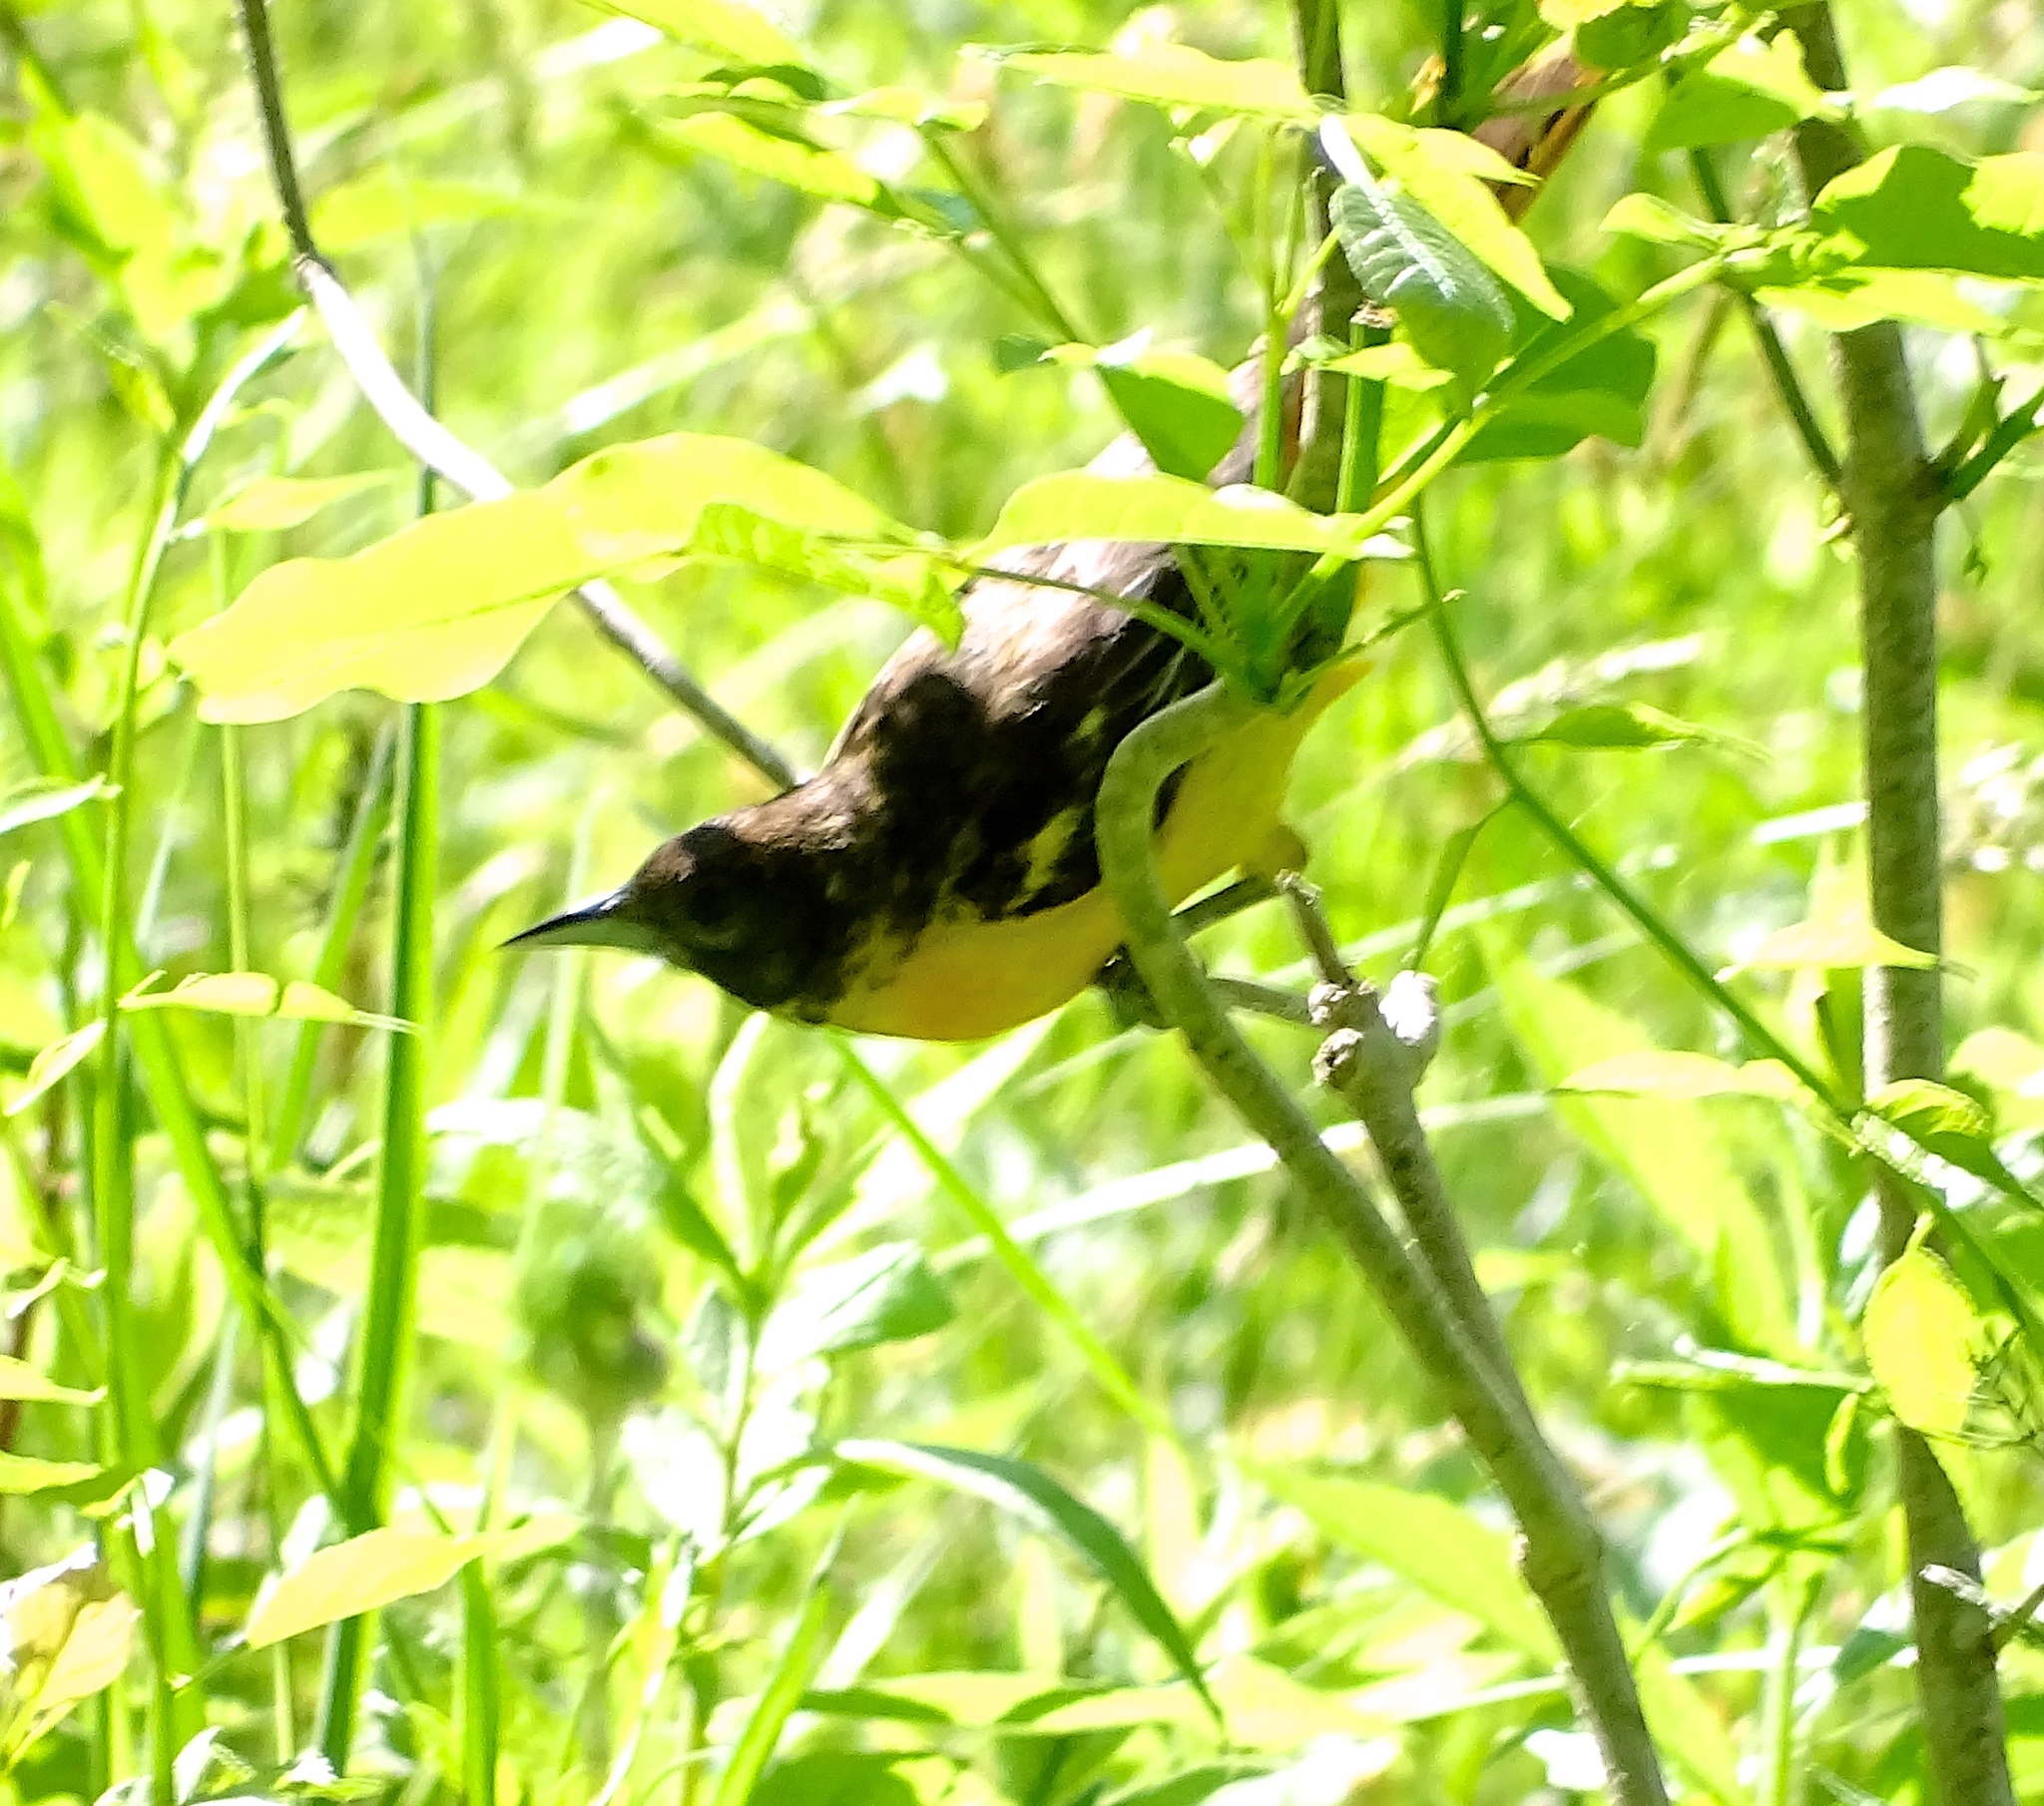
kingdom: Animalia
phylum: Chordata
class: Aves
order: Passeriformes
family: Icteridae
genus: Icterus
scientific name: Icterus galbula
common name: Baltimore oriole
